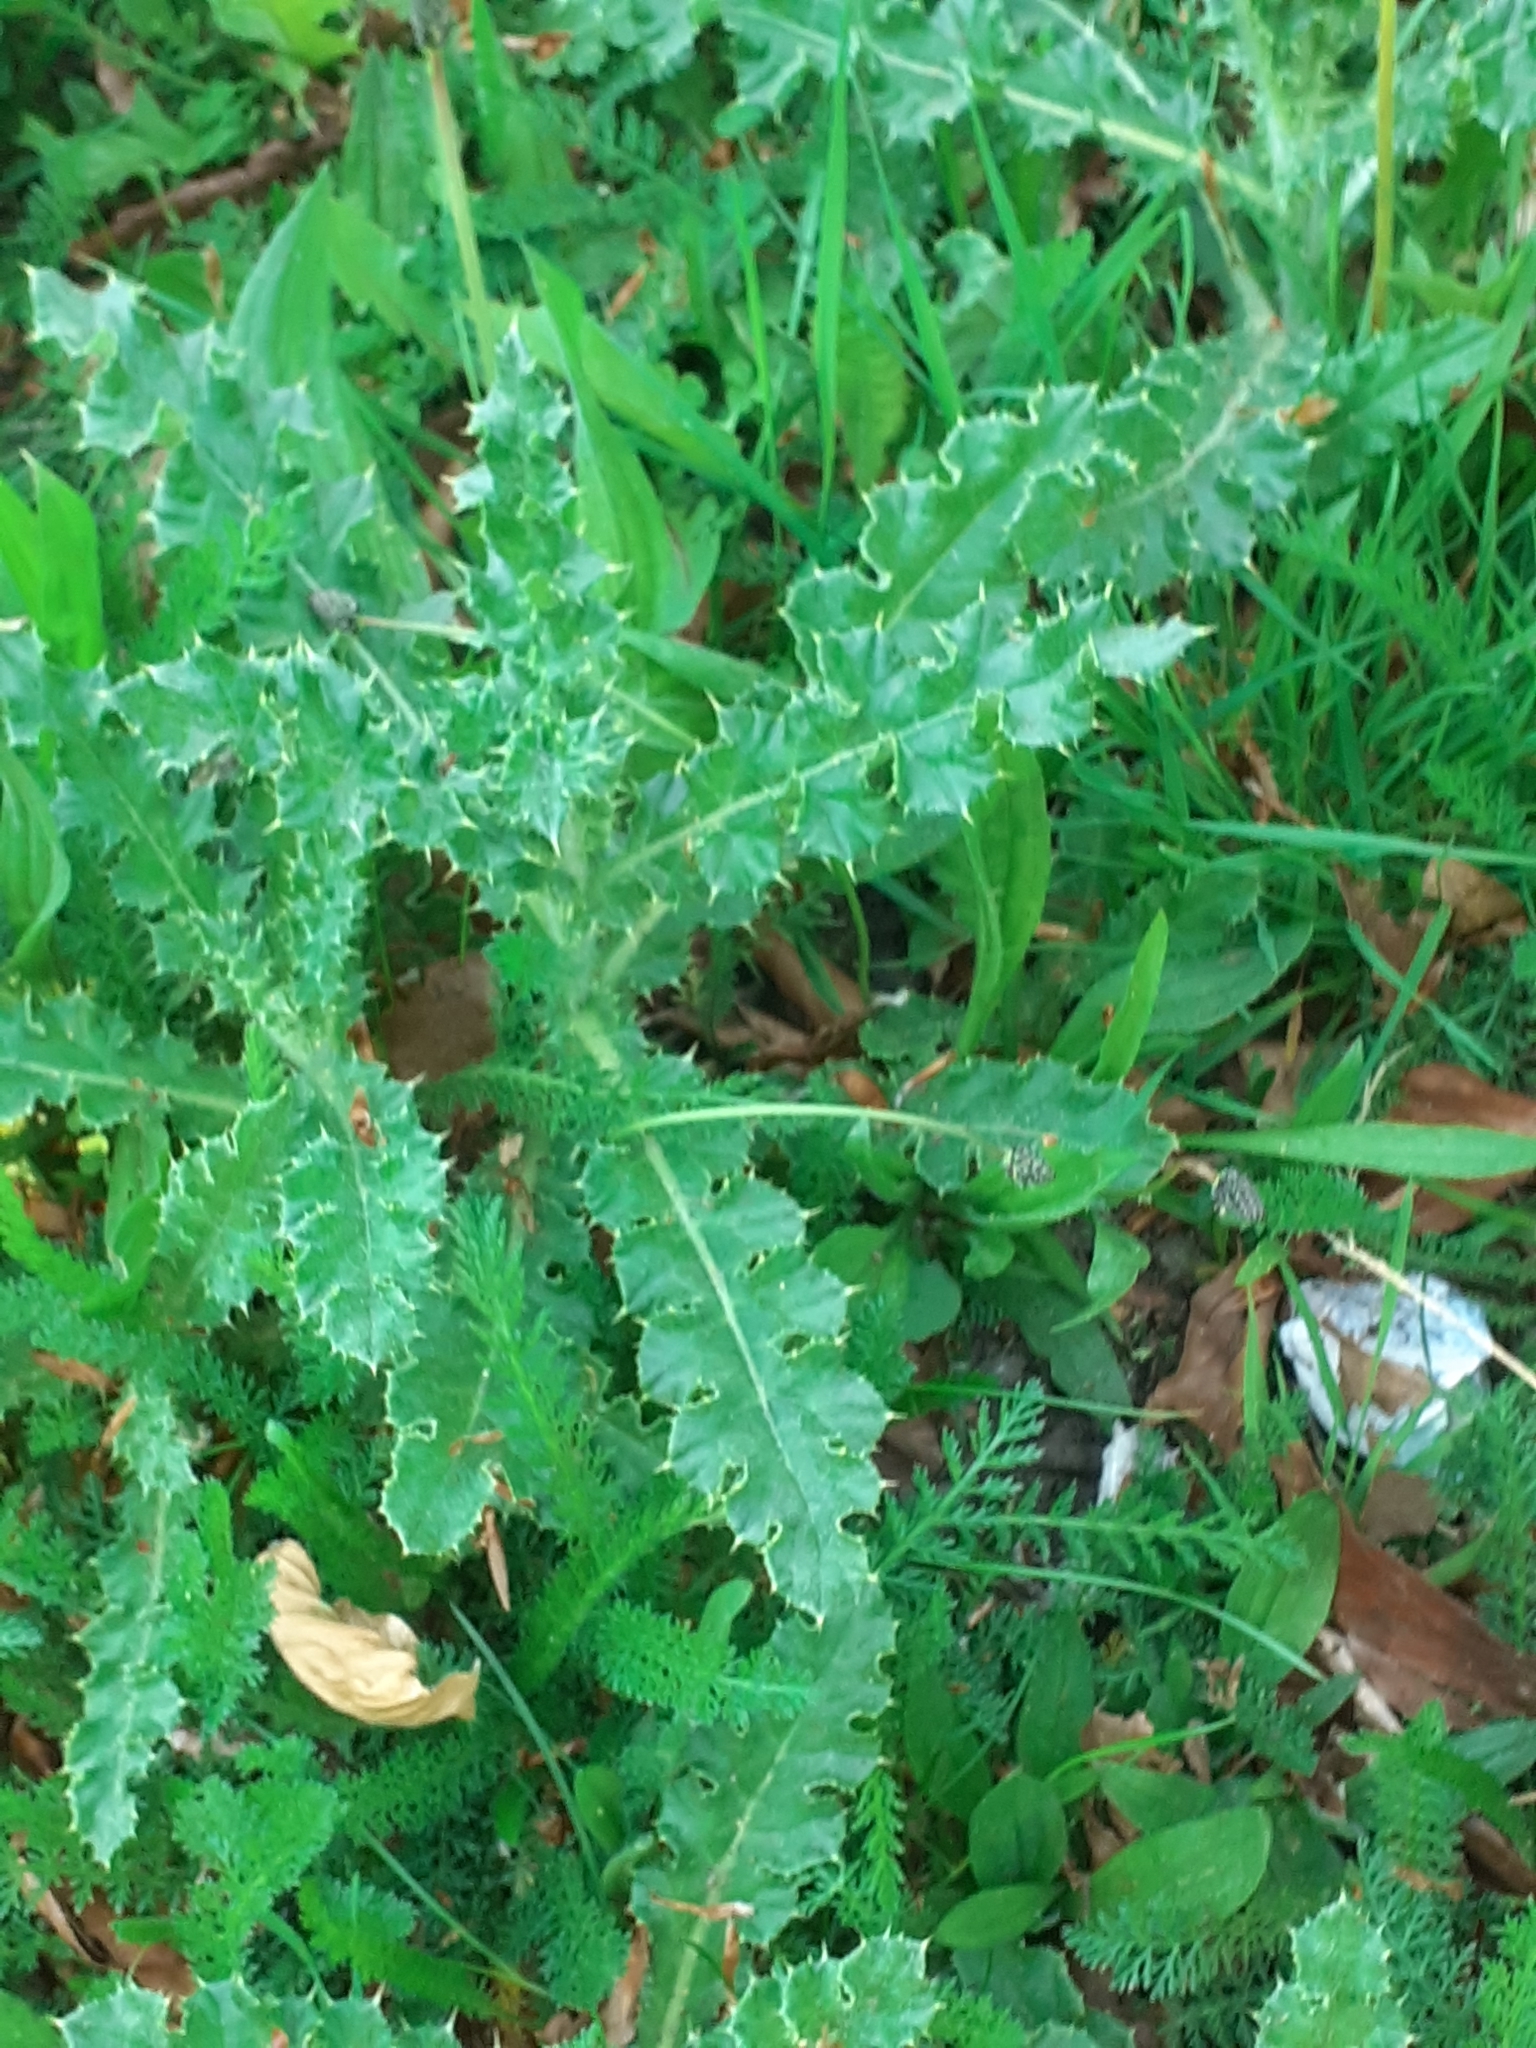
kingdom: Plantae
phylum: Tracheophyta
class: Magnoliopsida
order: Asterales
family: Asteraceae
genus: Cirsium
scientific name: Cirsium arvense
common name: Creeping thistle
